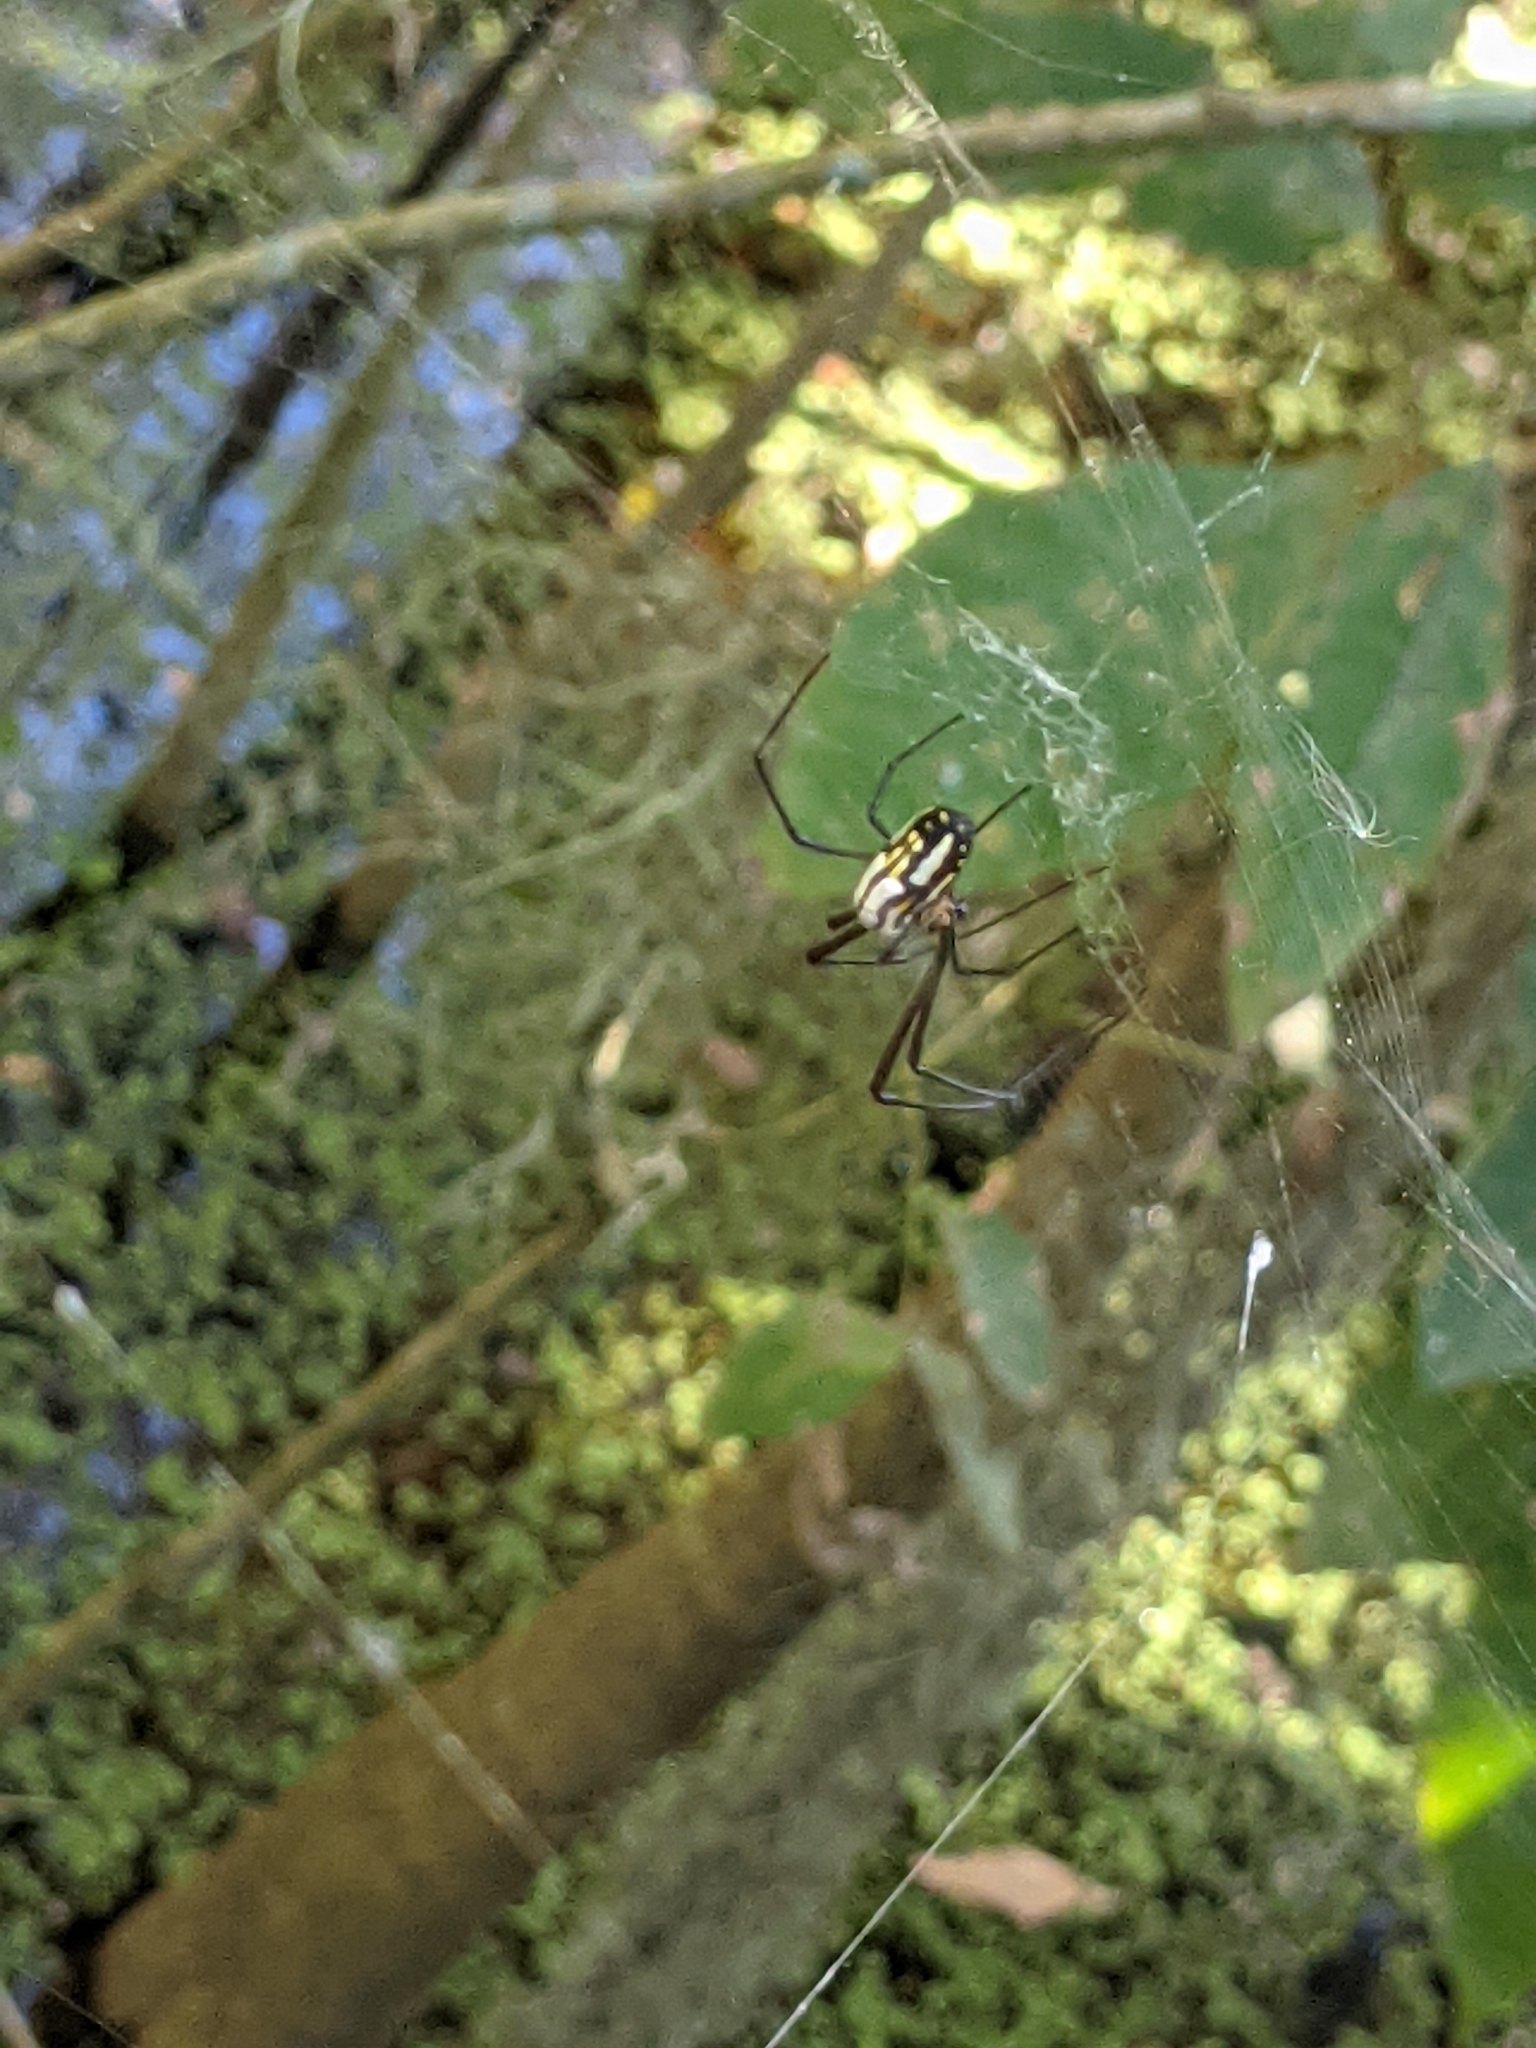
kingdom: Animalia
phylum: Arthropoda
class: Arachnida
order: Araneae
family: Tetragnathidae
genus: Leucauge
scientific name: Leucauge argyra
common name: Longjawed orb weavers
